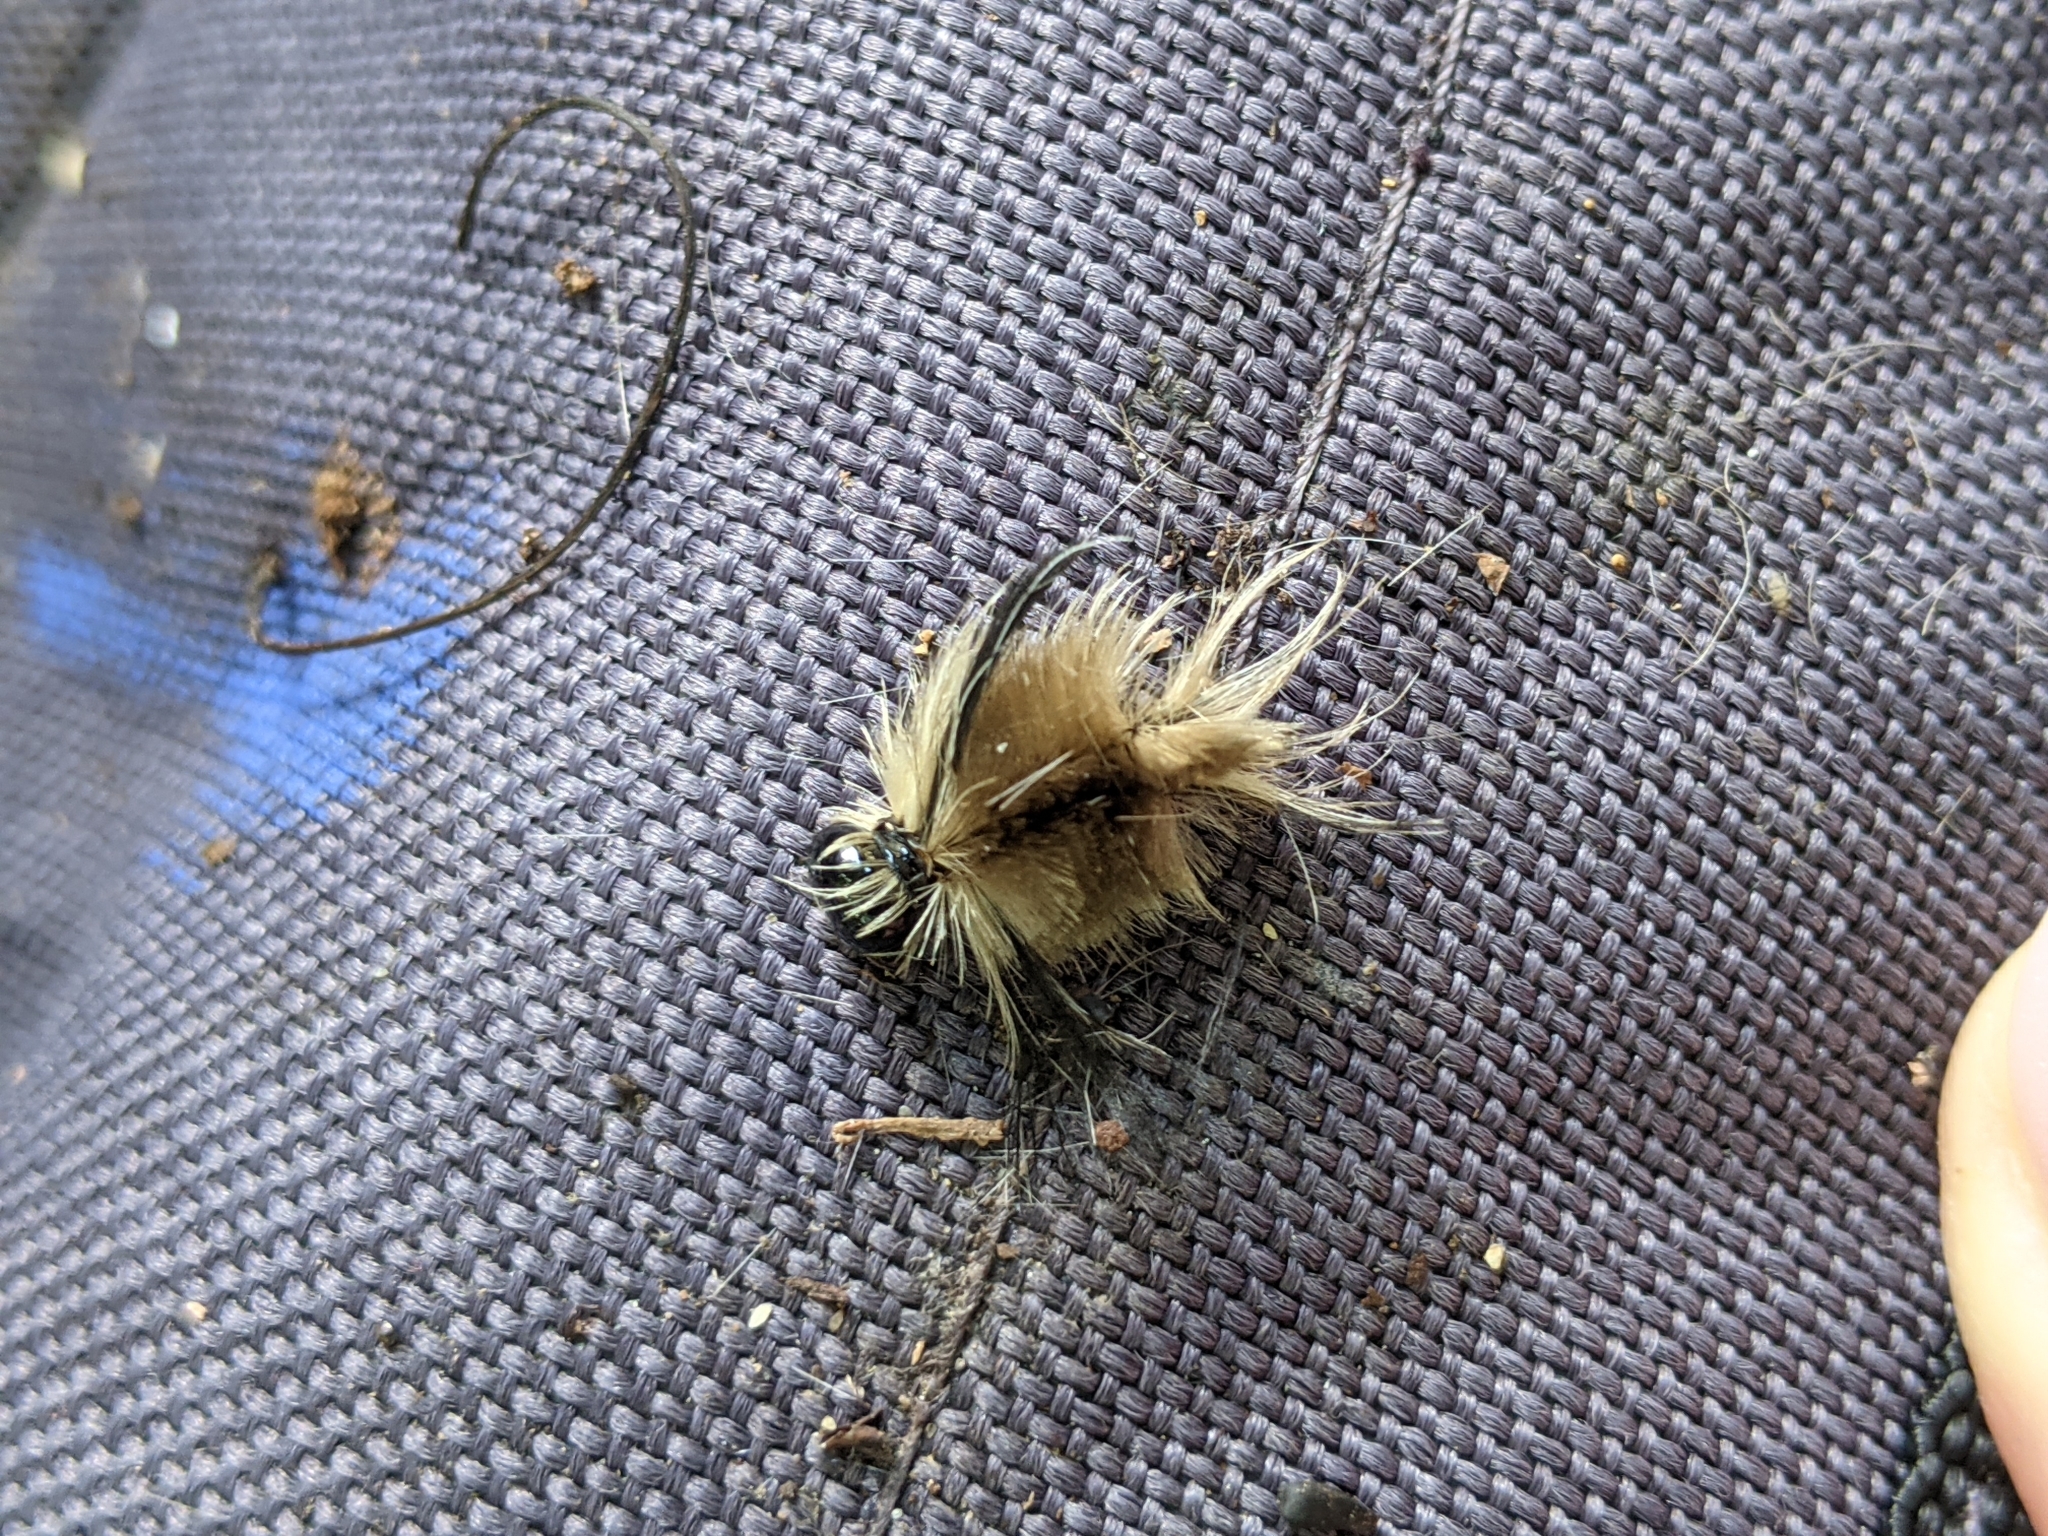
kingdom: Animalia
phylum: Arthropoda
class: Insecta
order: Lepidoptera
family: Erebidae
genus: Halysidota
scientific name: Halysidota tessellaris
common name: Banded tussock moth
